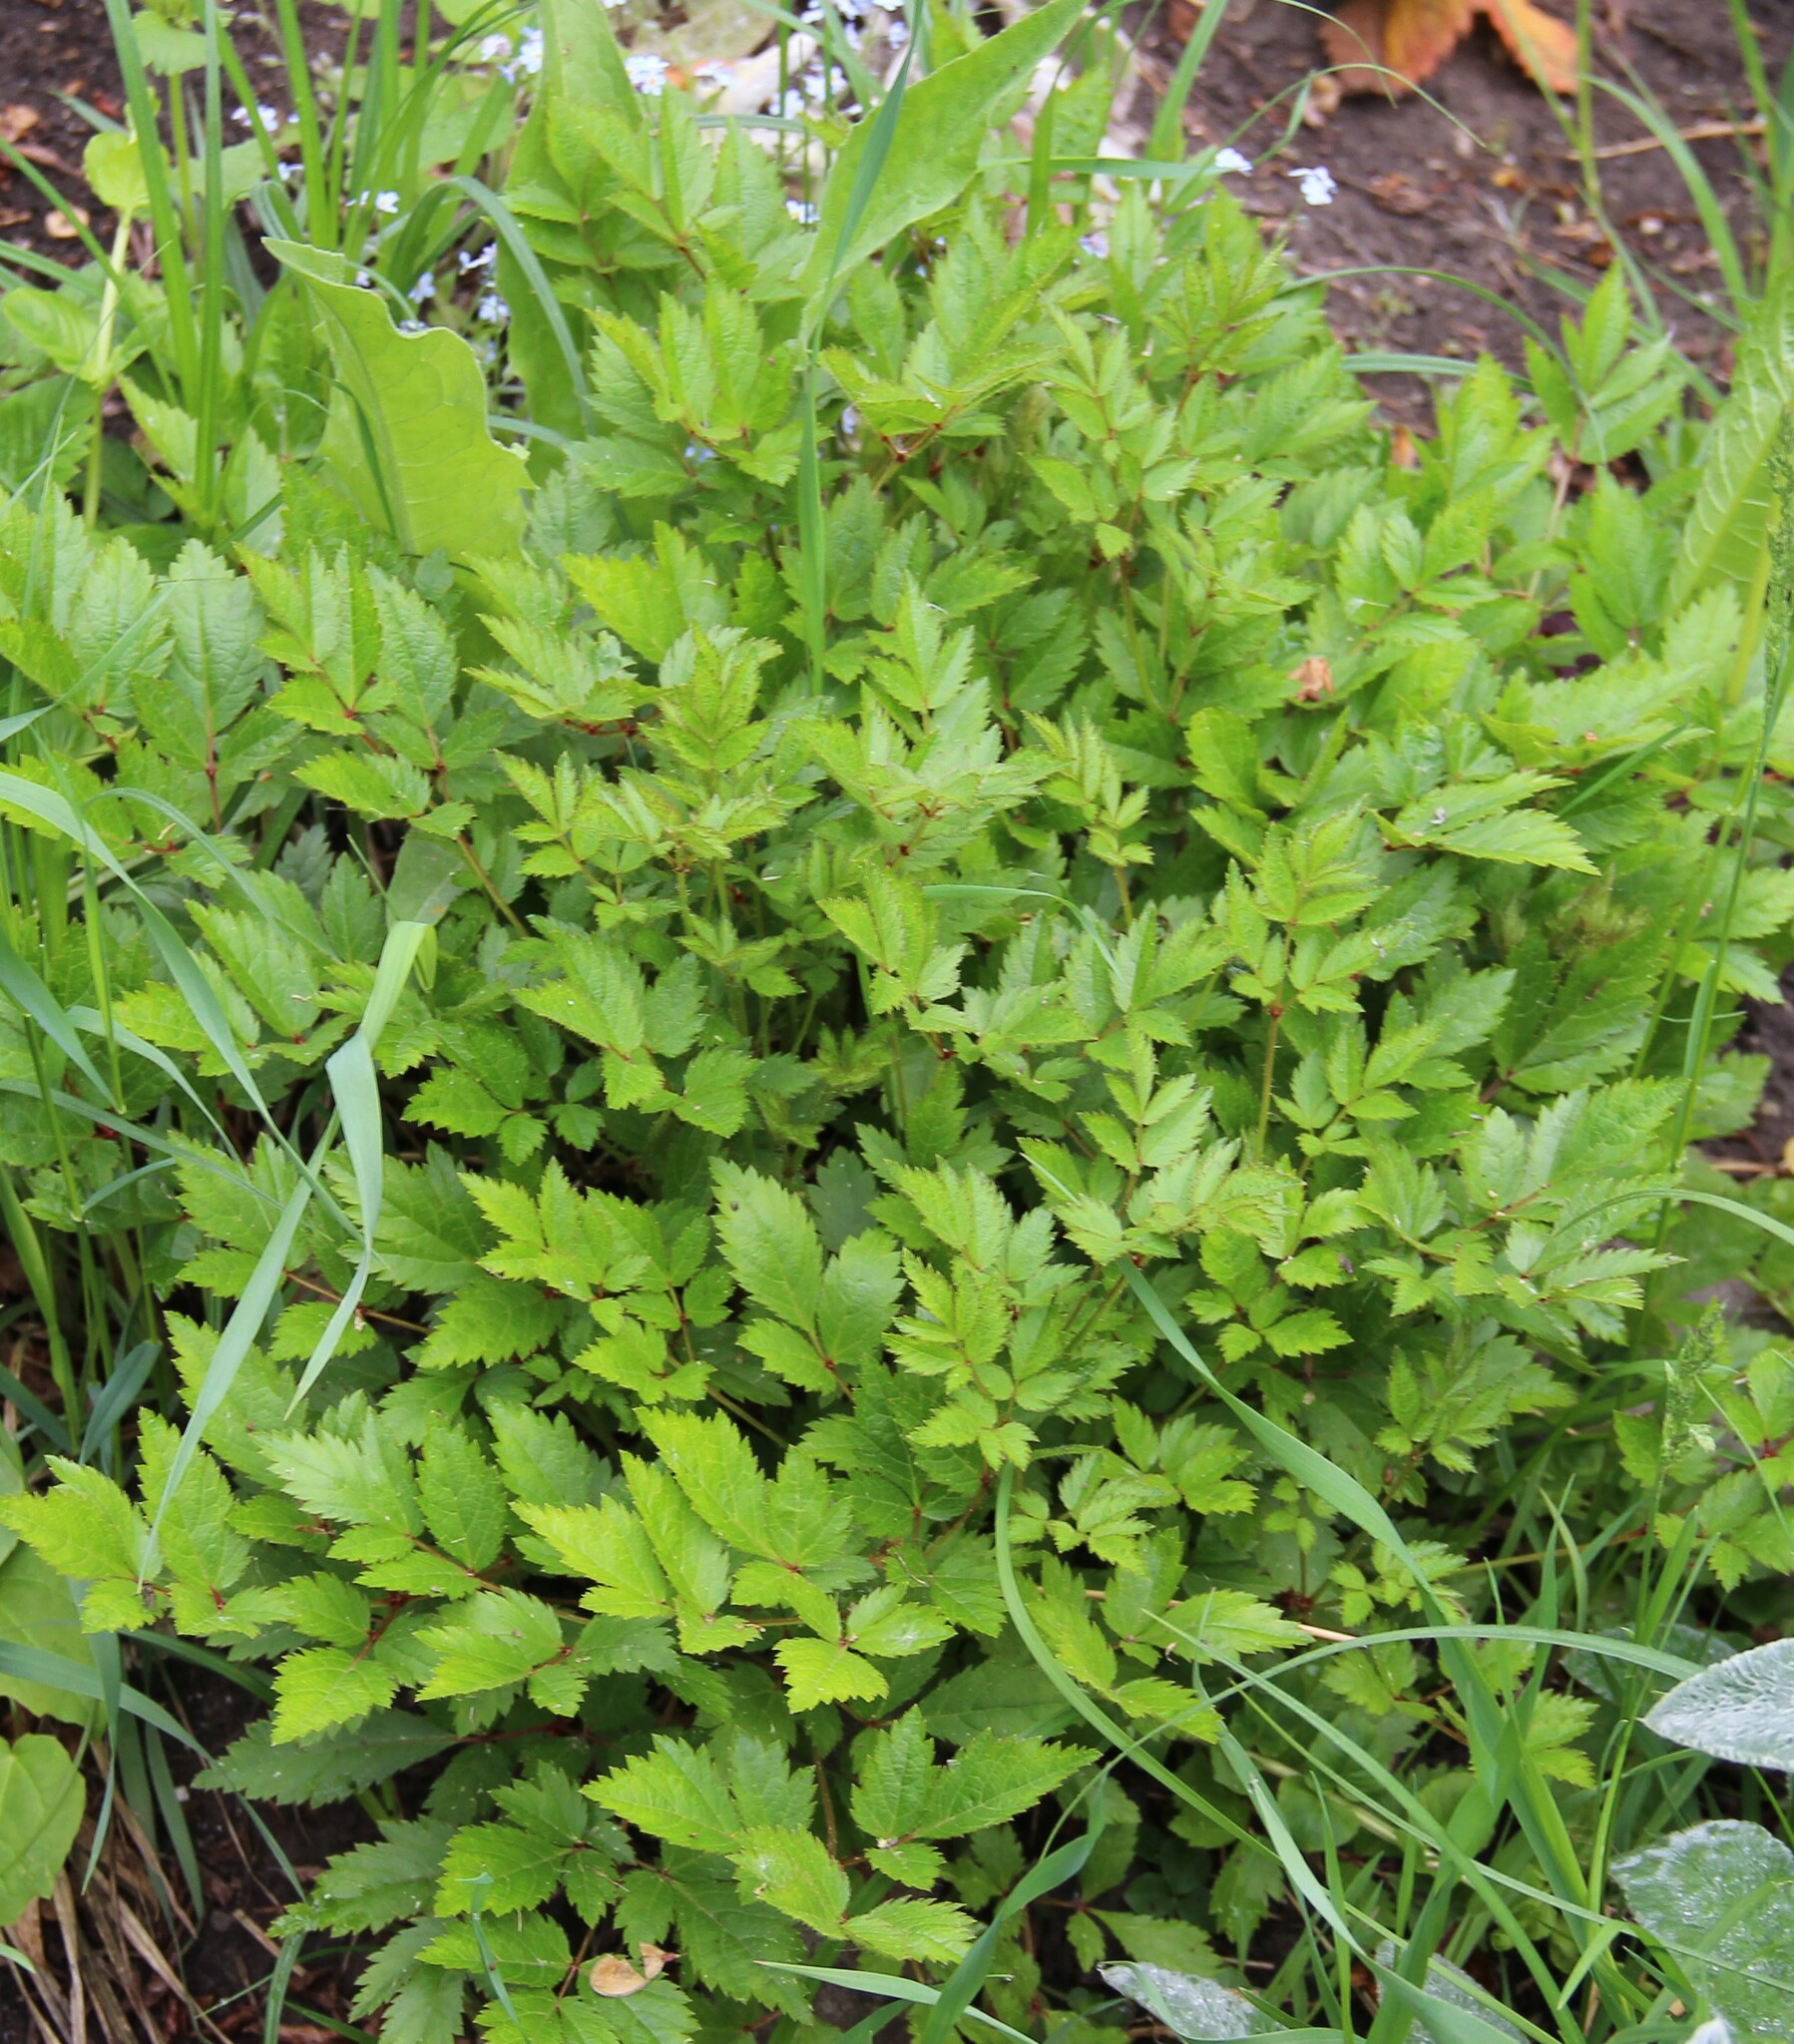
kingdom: Plantae
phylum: Tracheophyta
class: Magnoliopsida
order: Saxifragales
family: Saxifragaceae
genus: Astilbe
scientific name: Astilbe rubra
